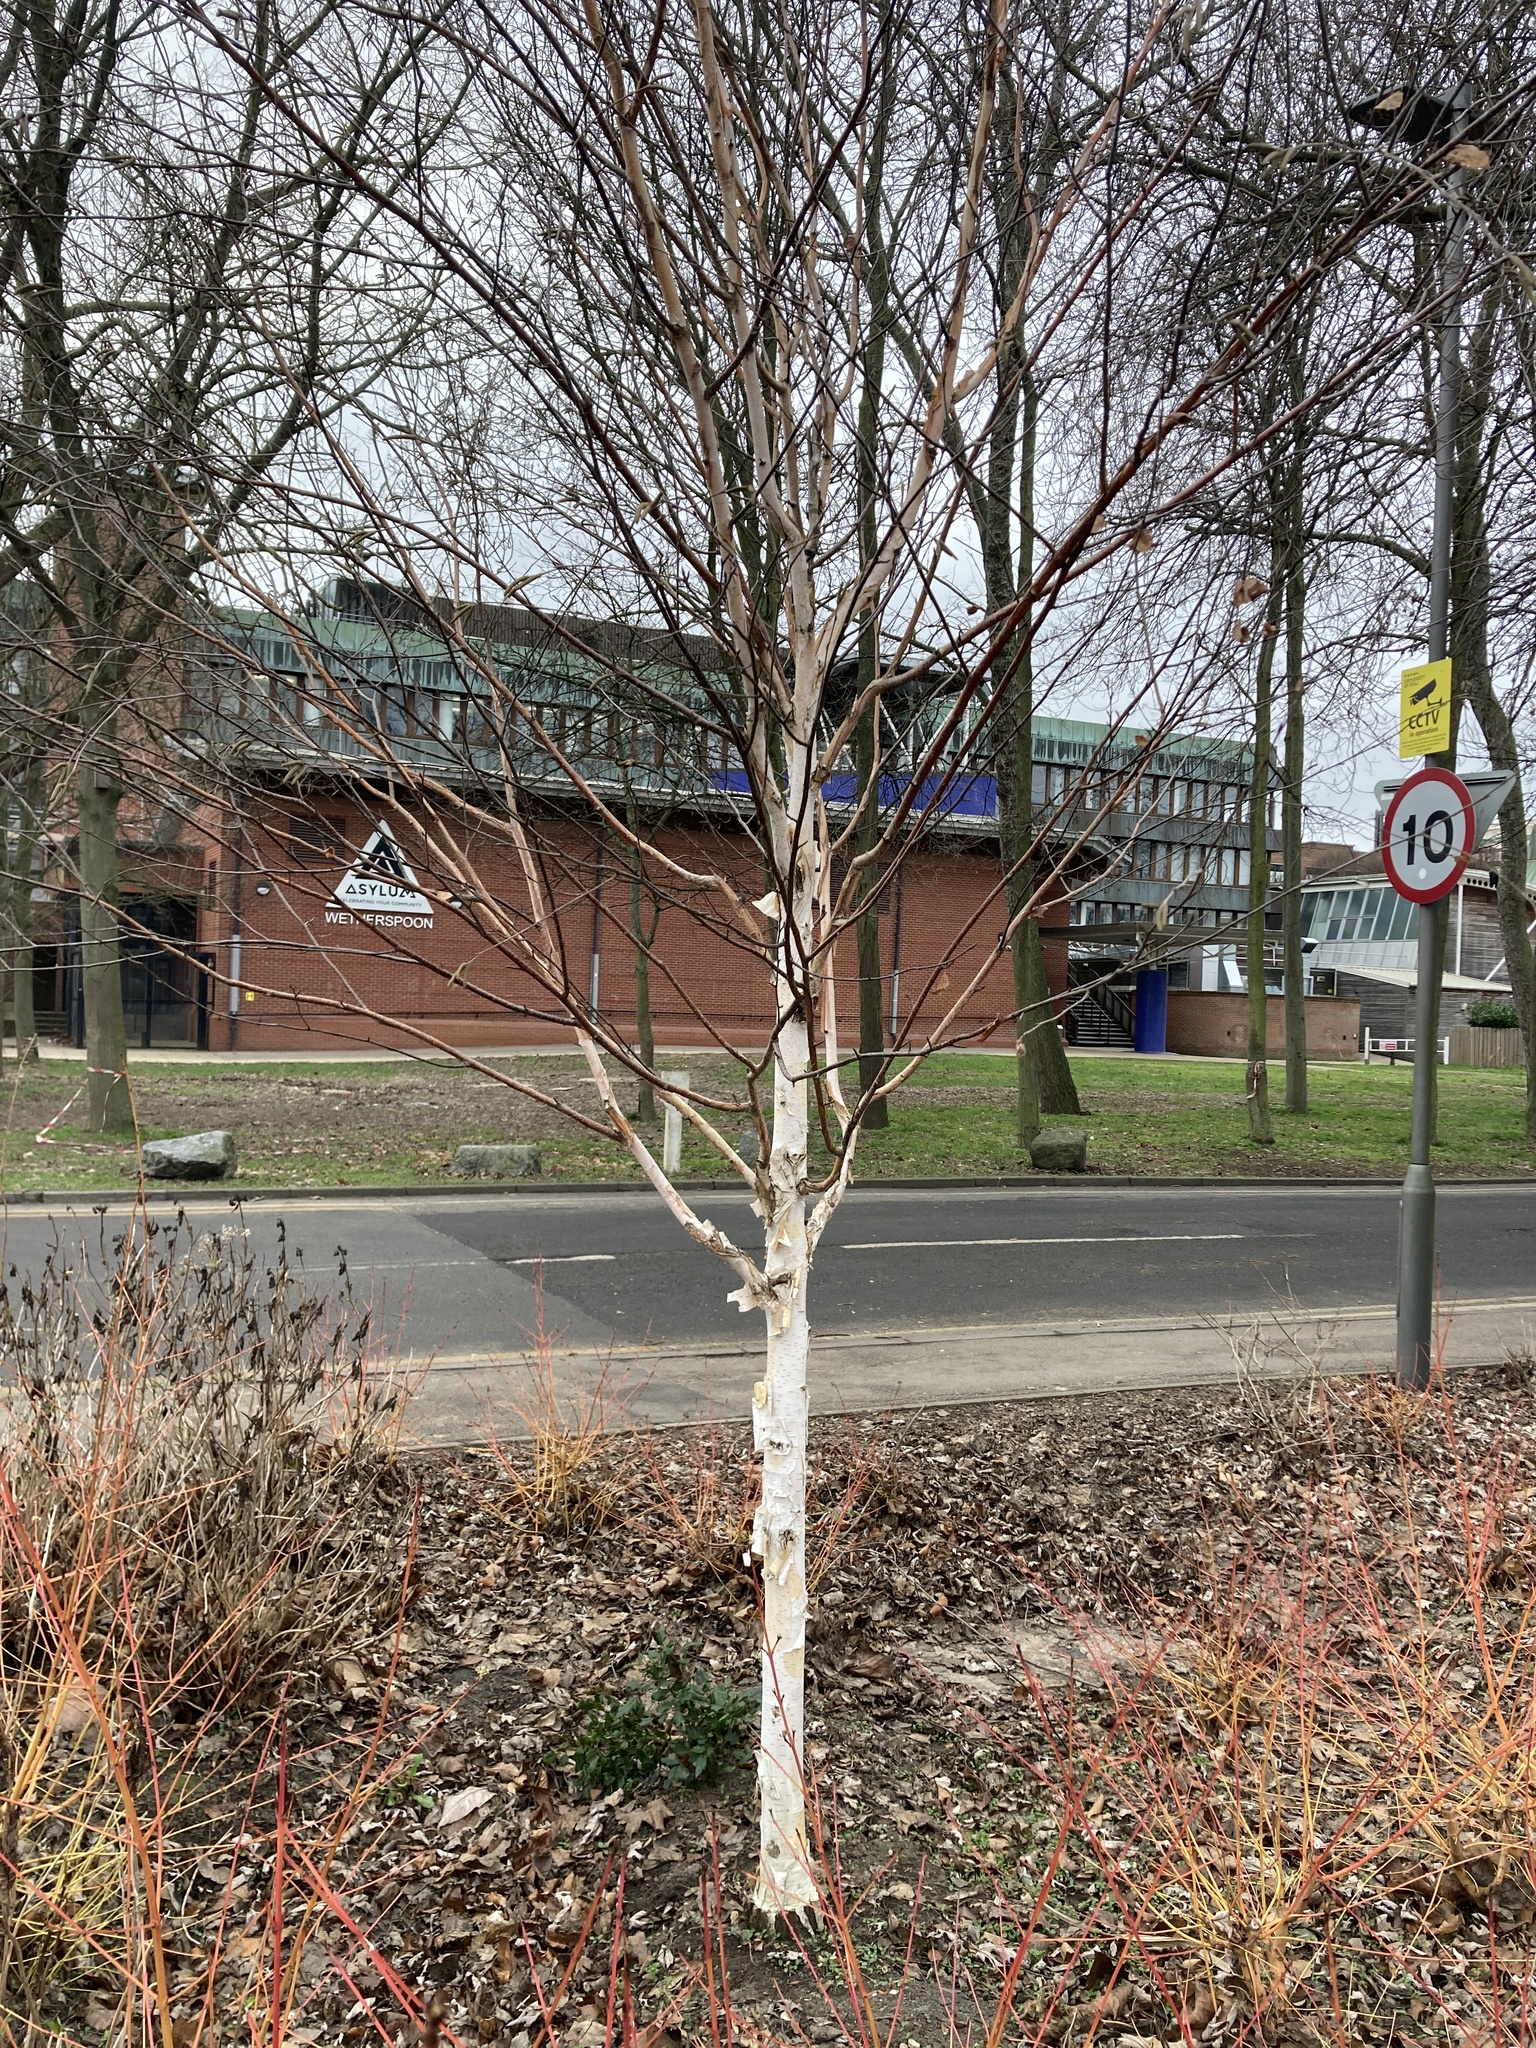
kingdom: Plantae
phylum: Tracheophyta
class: Magnoliopsida
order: Fagales
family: Betulaceae
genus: Betula
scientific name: Betula papyrifera
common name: Paper birch
